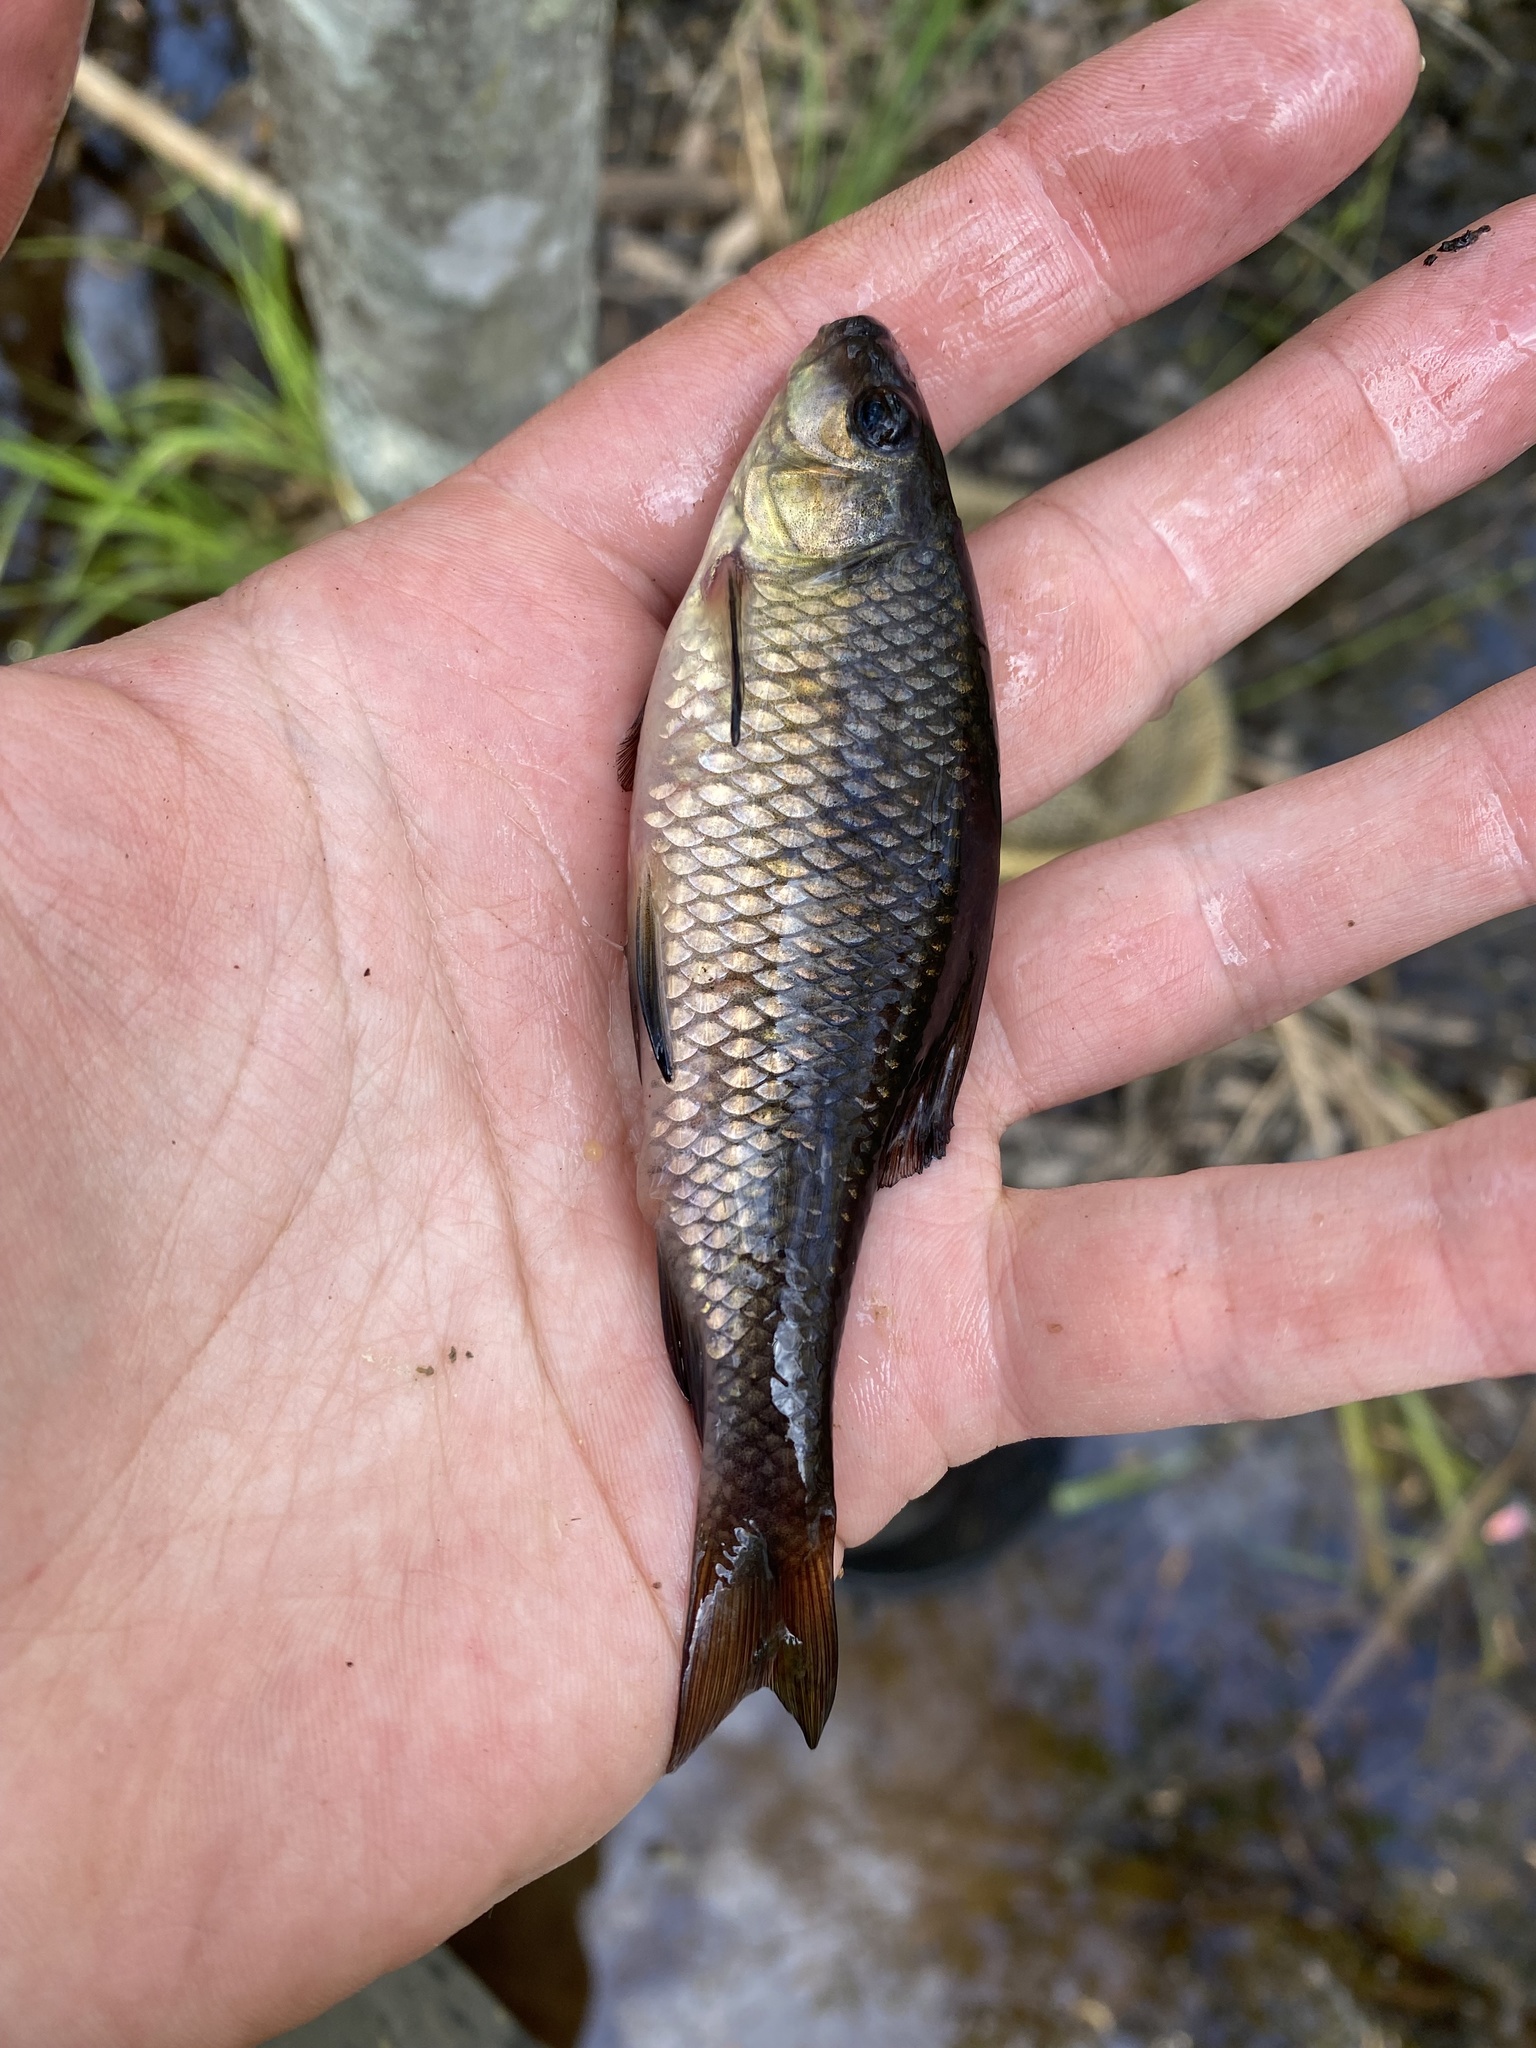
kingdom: Animalia
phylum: Chordata
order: Cypriniformes
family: Catostomidae
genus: Erimyzon
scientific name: Erimyzon oblongus
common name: Eastern creek chubsucker
